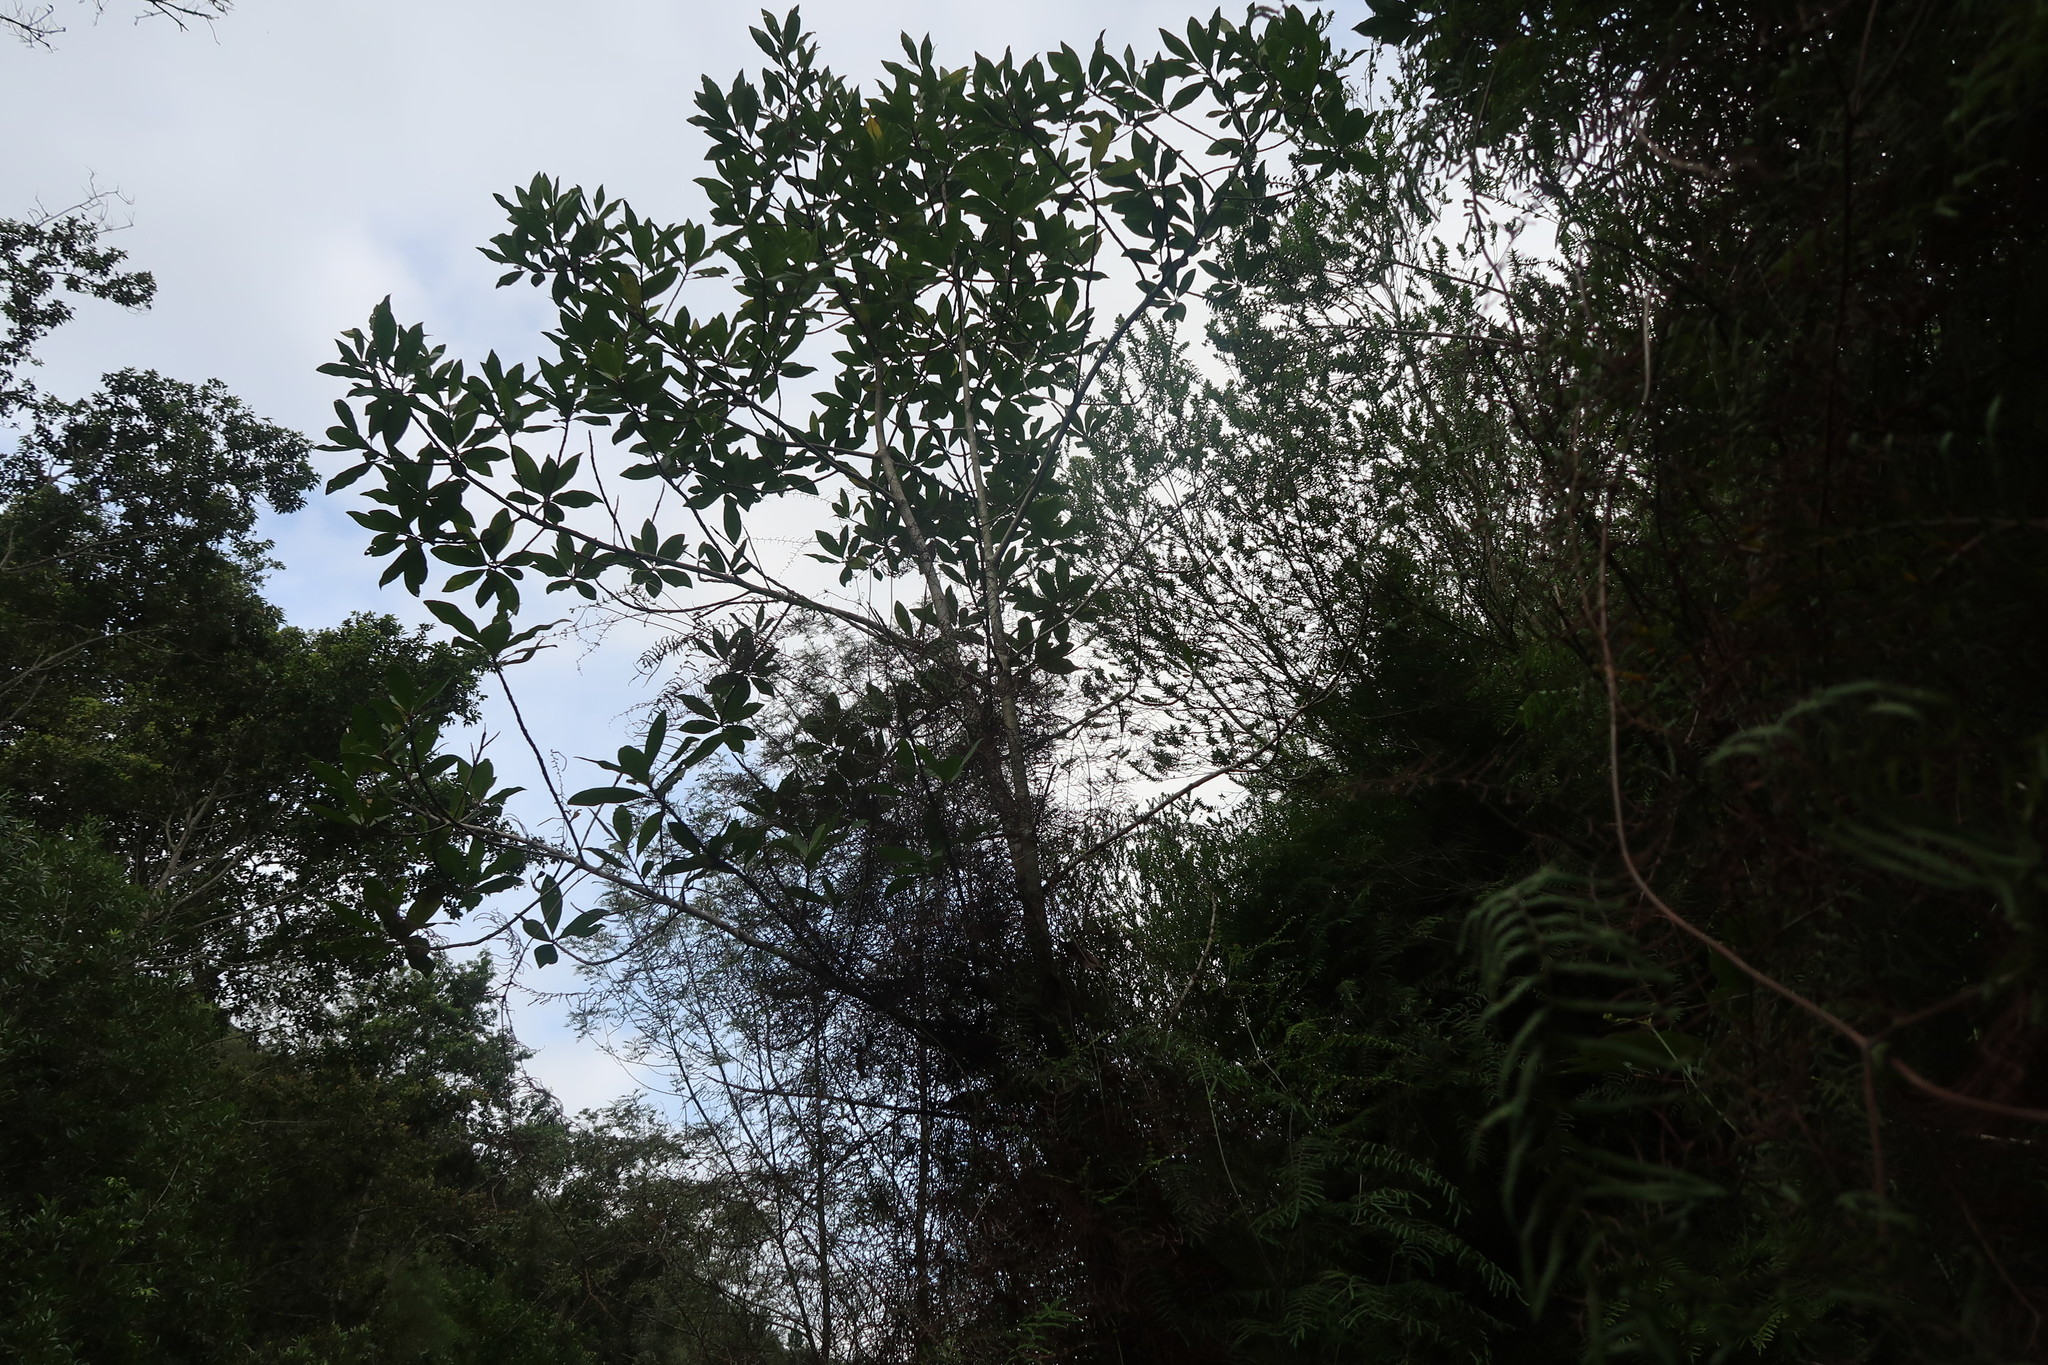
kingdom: Plantae
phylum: Tracheophyta
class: Magnoliopsida
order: Ericales
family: Primulaceae
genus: Myrsine
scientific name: Myrsine melanophloeos
